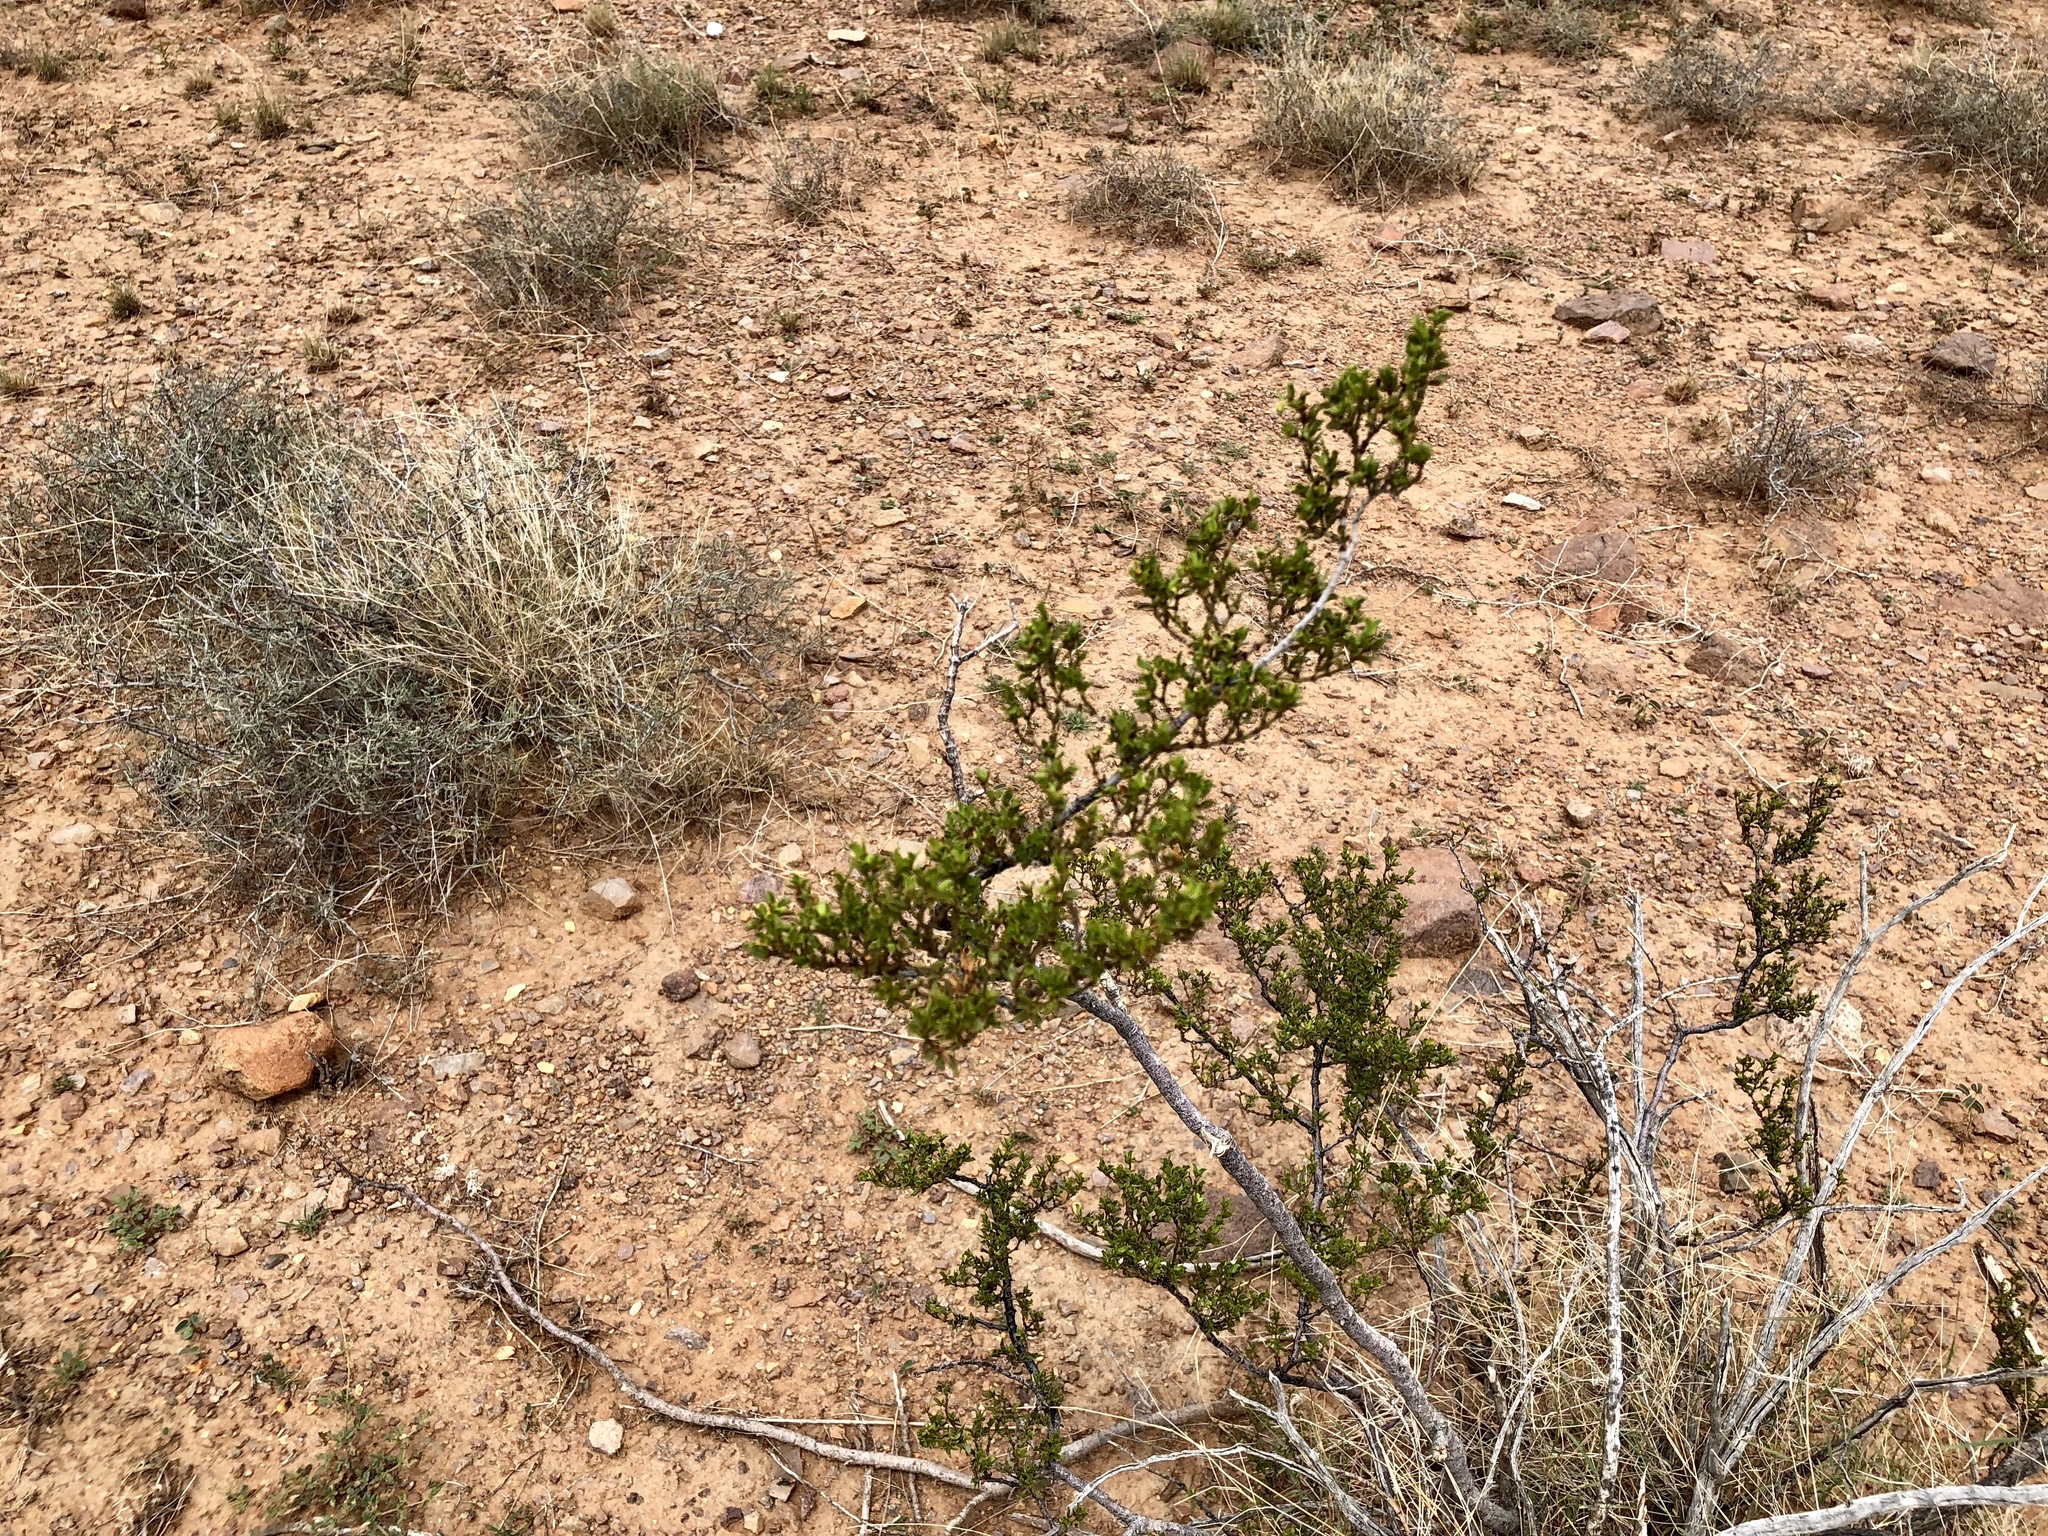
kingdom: Plantae
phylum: Tracheophyta
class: Magnoliopsida
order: Zygophyllales
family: Zygophyllaceae
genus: Larrea
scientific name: Larrea tridentata
